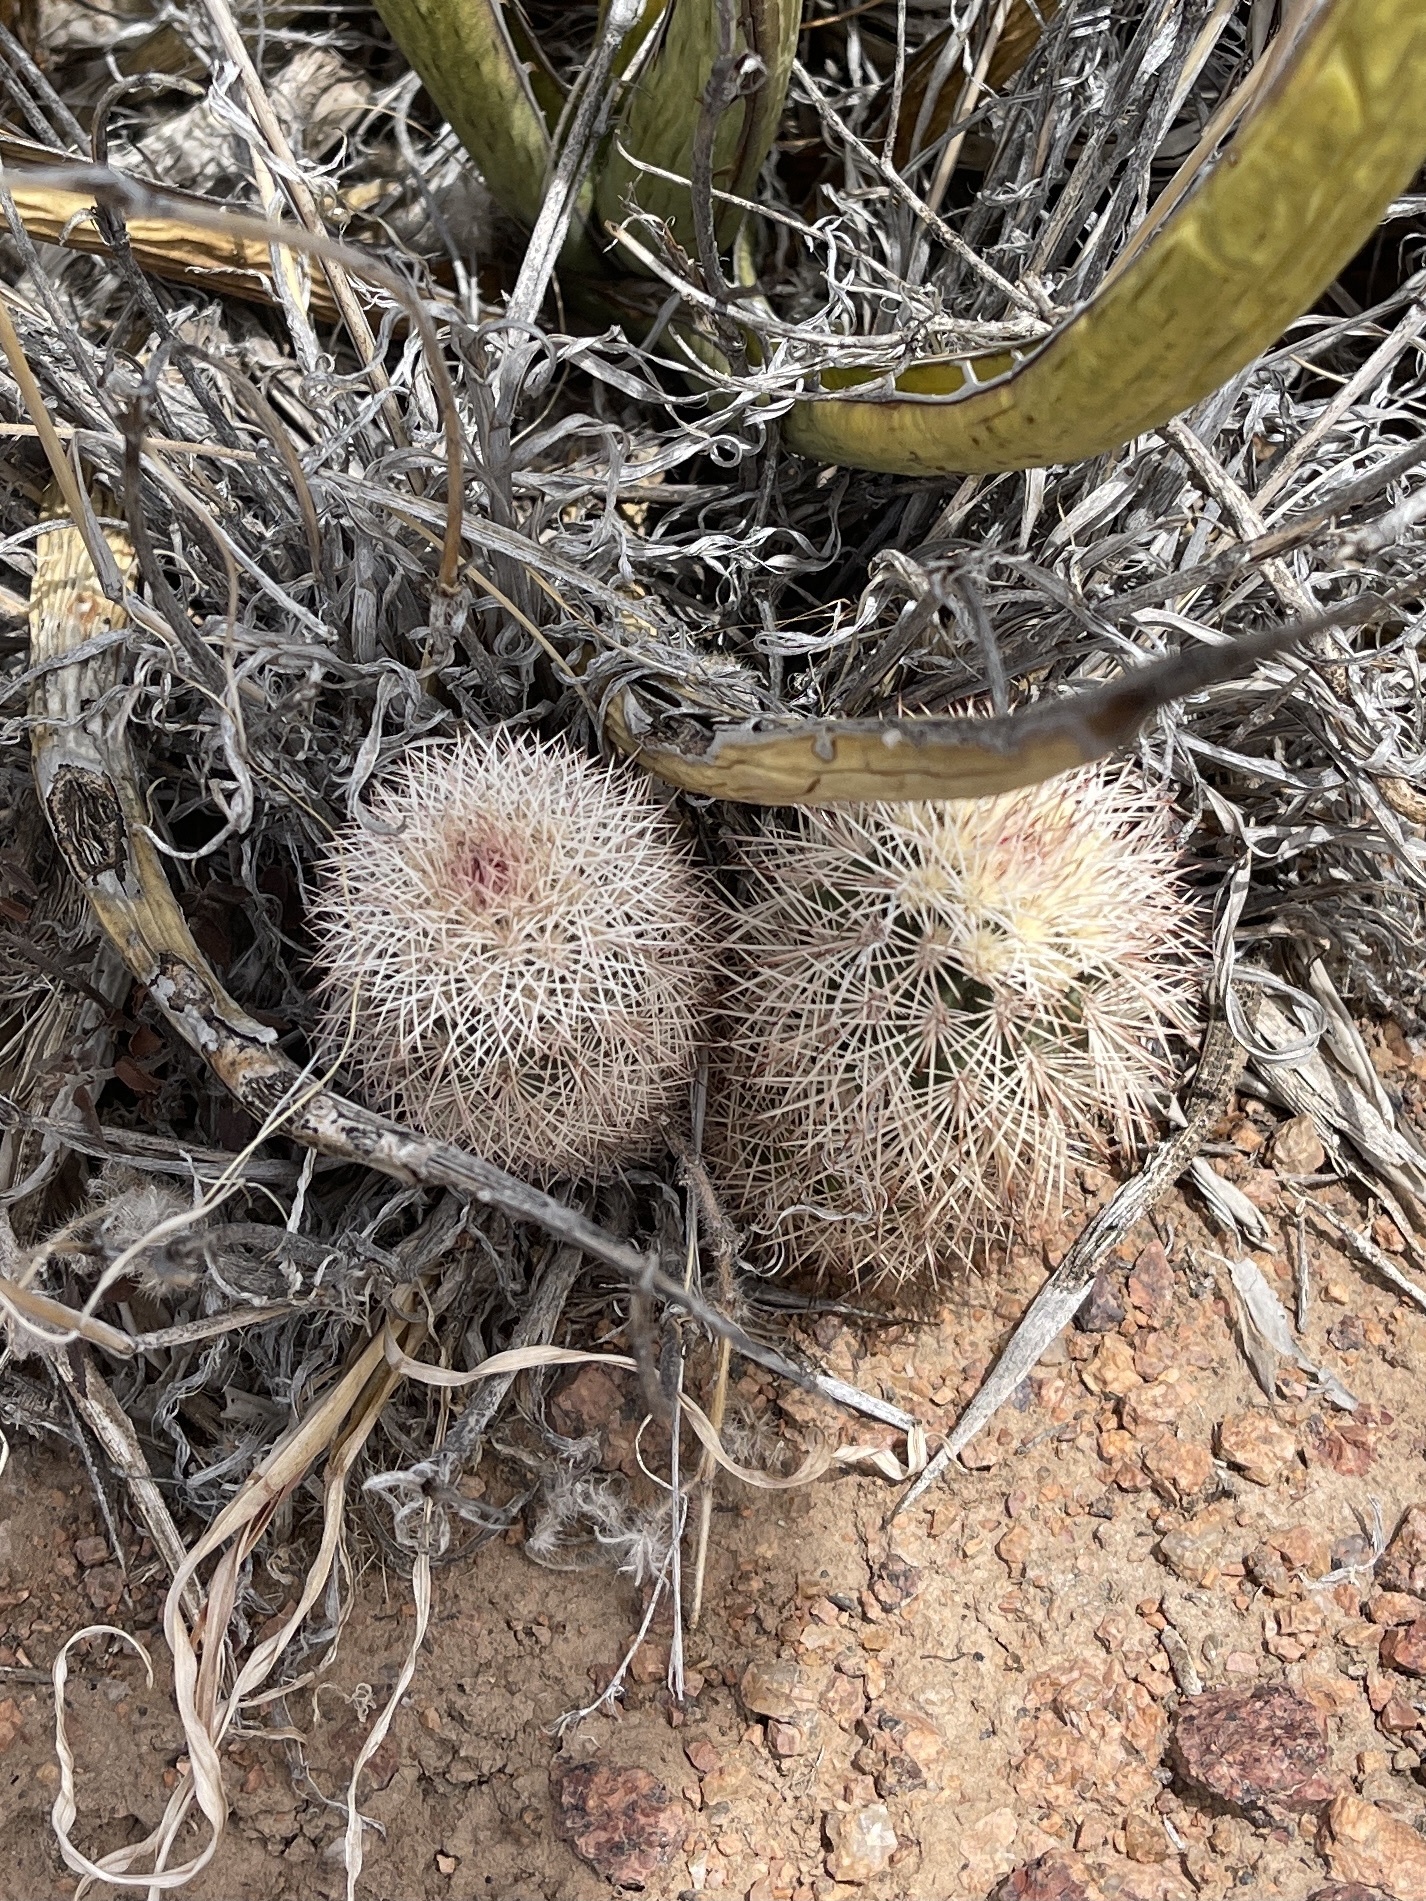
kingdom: Plantae
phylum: Tracheophyta
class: Magnoliopsida
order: Caryophyllales
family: Cactaceae
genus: Echinocereus
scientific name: Echinocereus dasyacanthus
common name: Spiny hedgehog cactus
